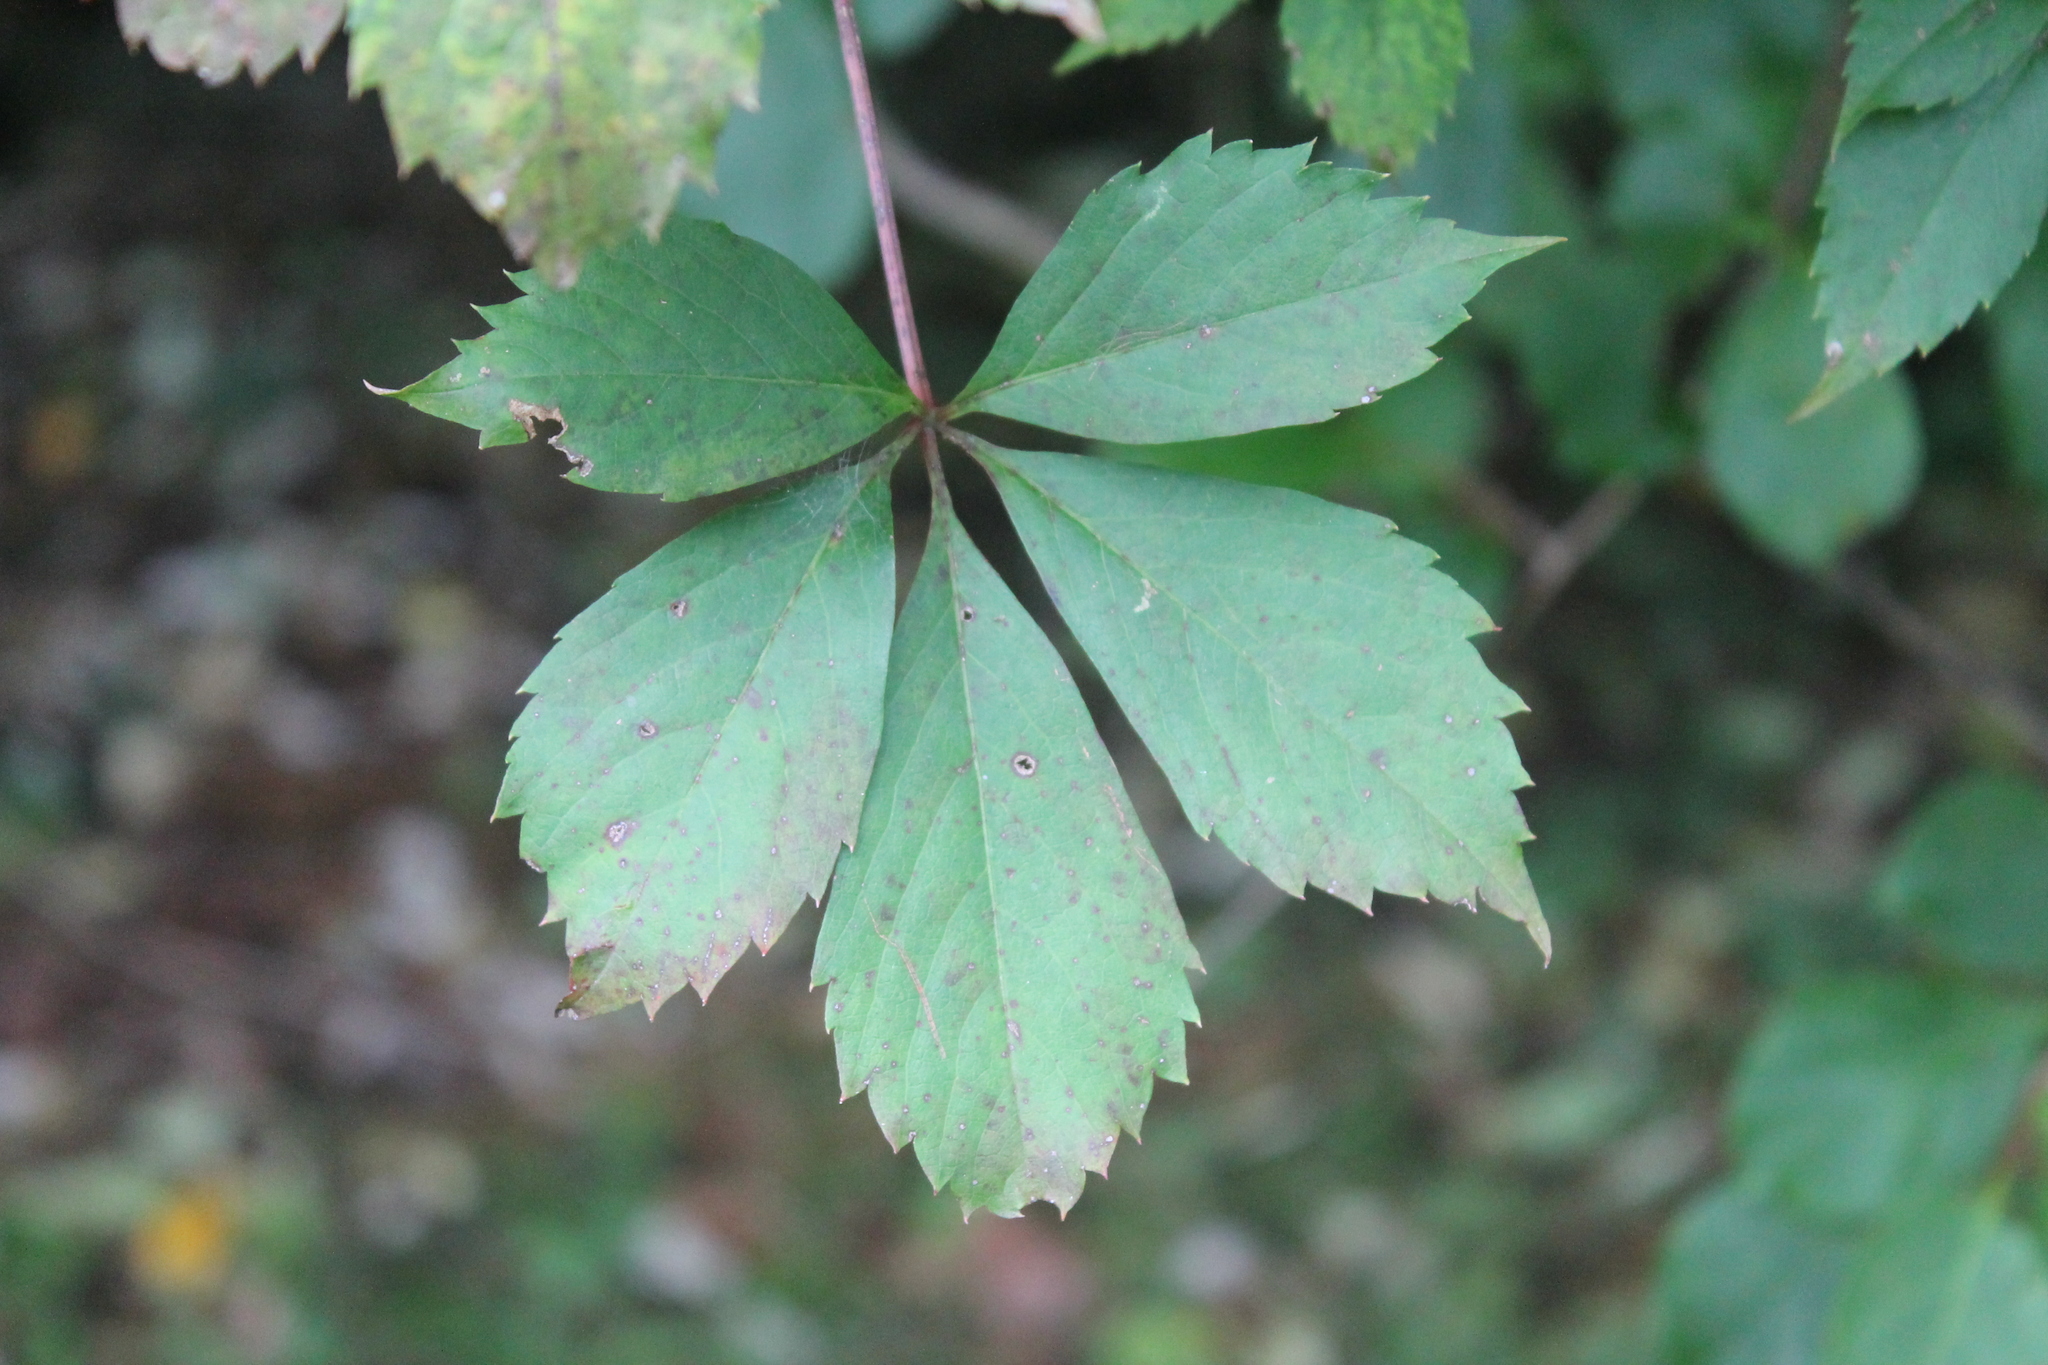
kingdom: Plantae
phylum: Tracheophyta
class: Magnoliopsida
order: Vitales
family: Vitaceae
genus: Parthenocissus
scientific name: Parthenocissus quinquefolia
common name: Virginia-creeper
